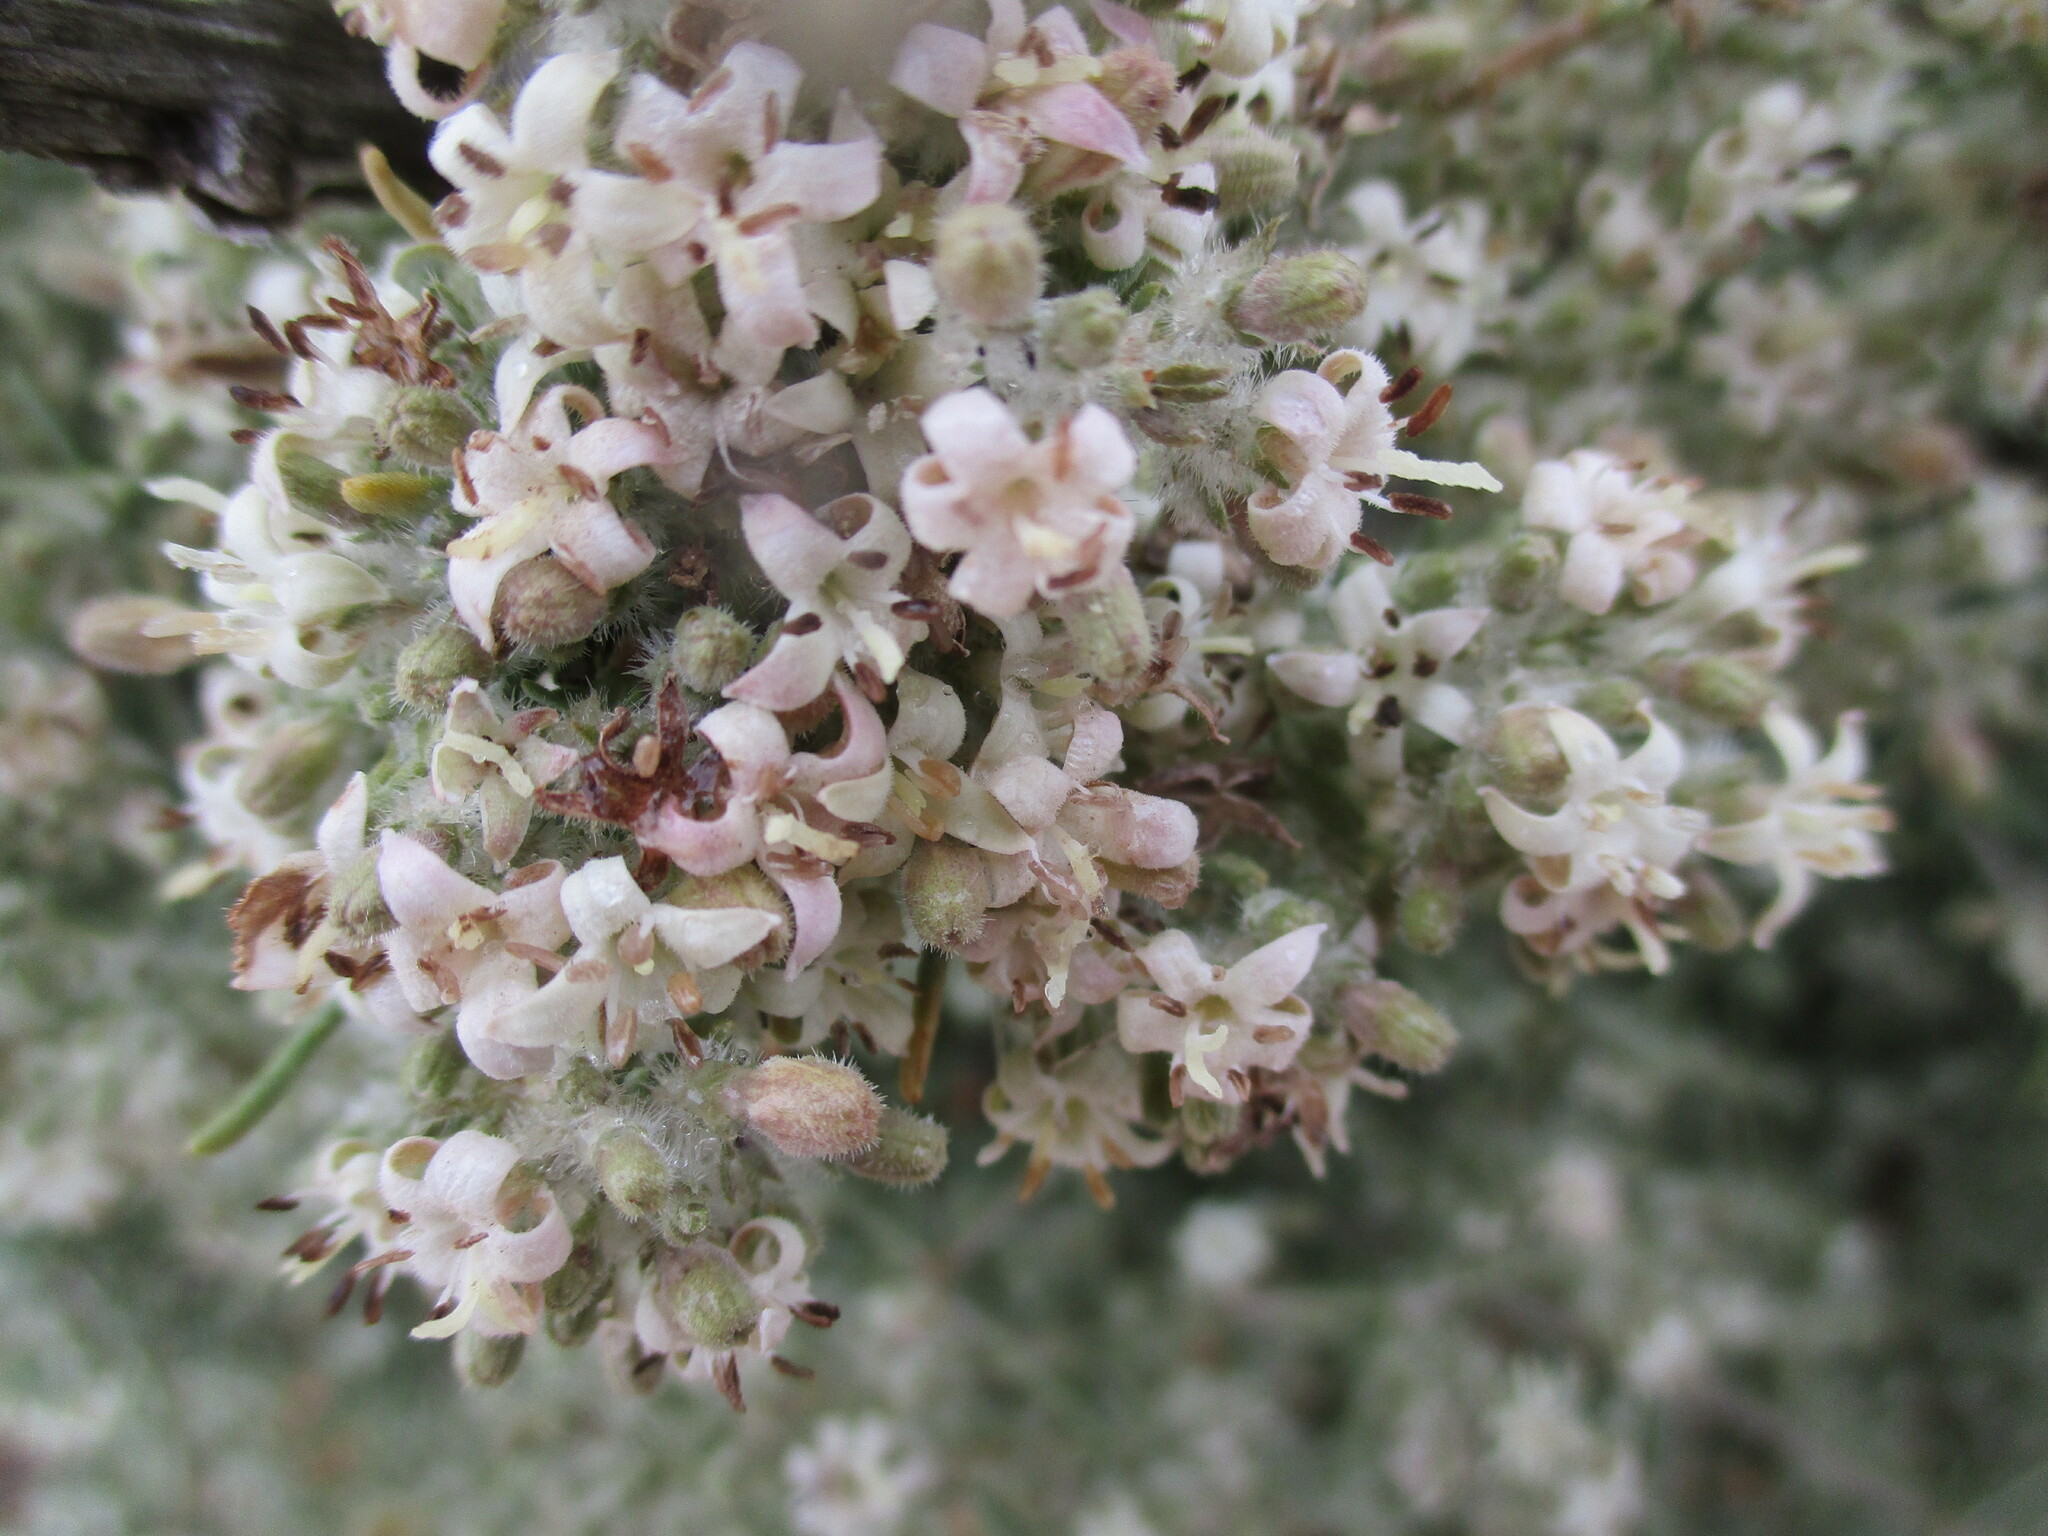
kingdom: Plantae
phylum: Tracheophyta
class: Magnoliopsida
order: Gentianales
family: Rubiaceae
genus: Plocama
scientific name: Plocama crocyllis
